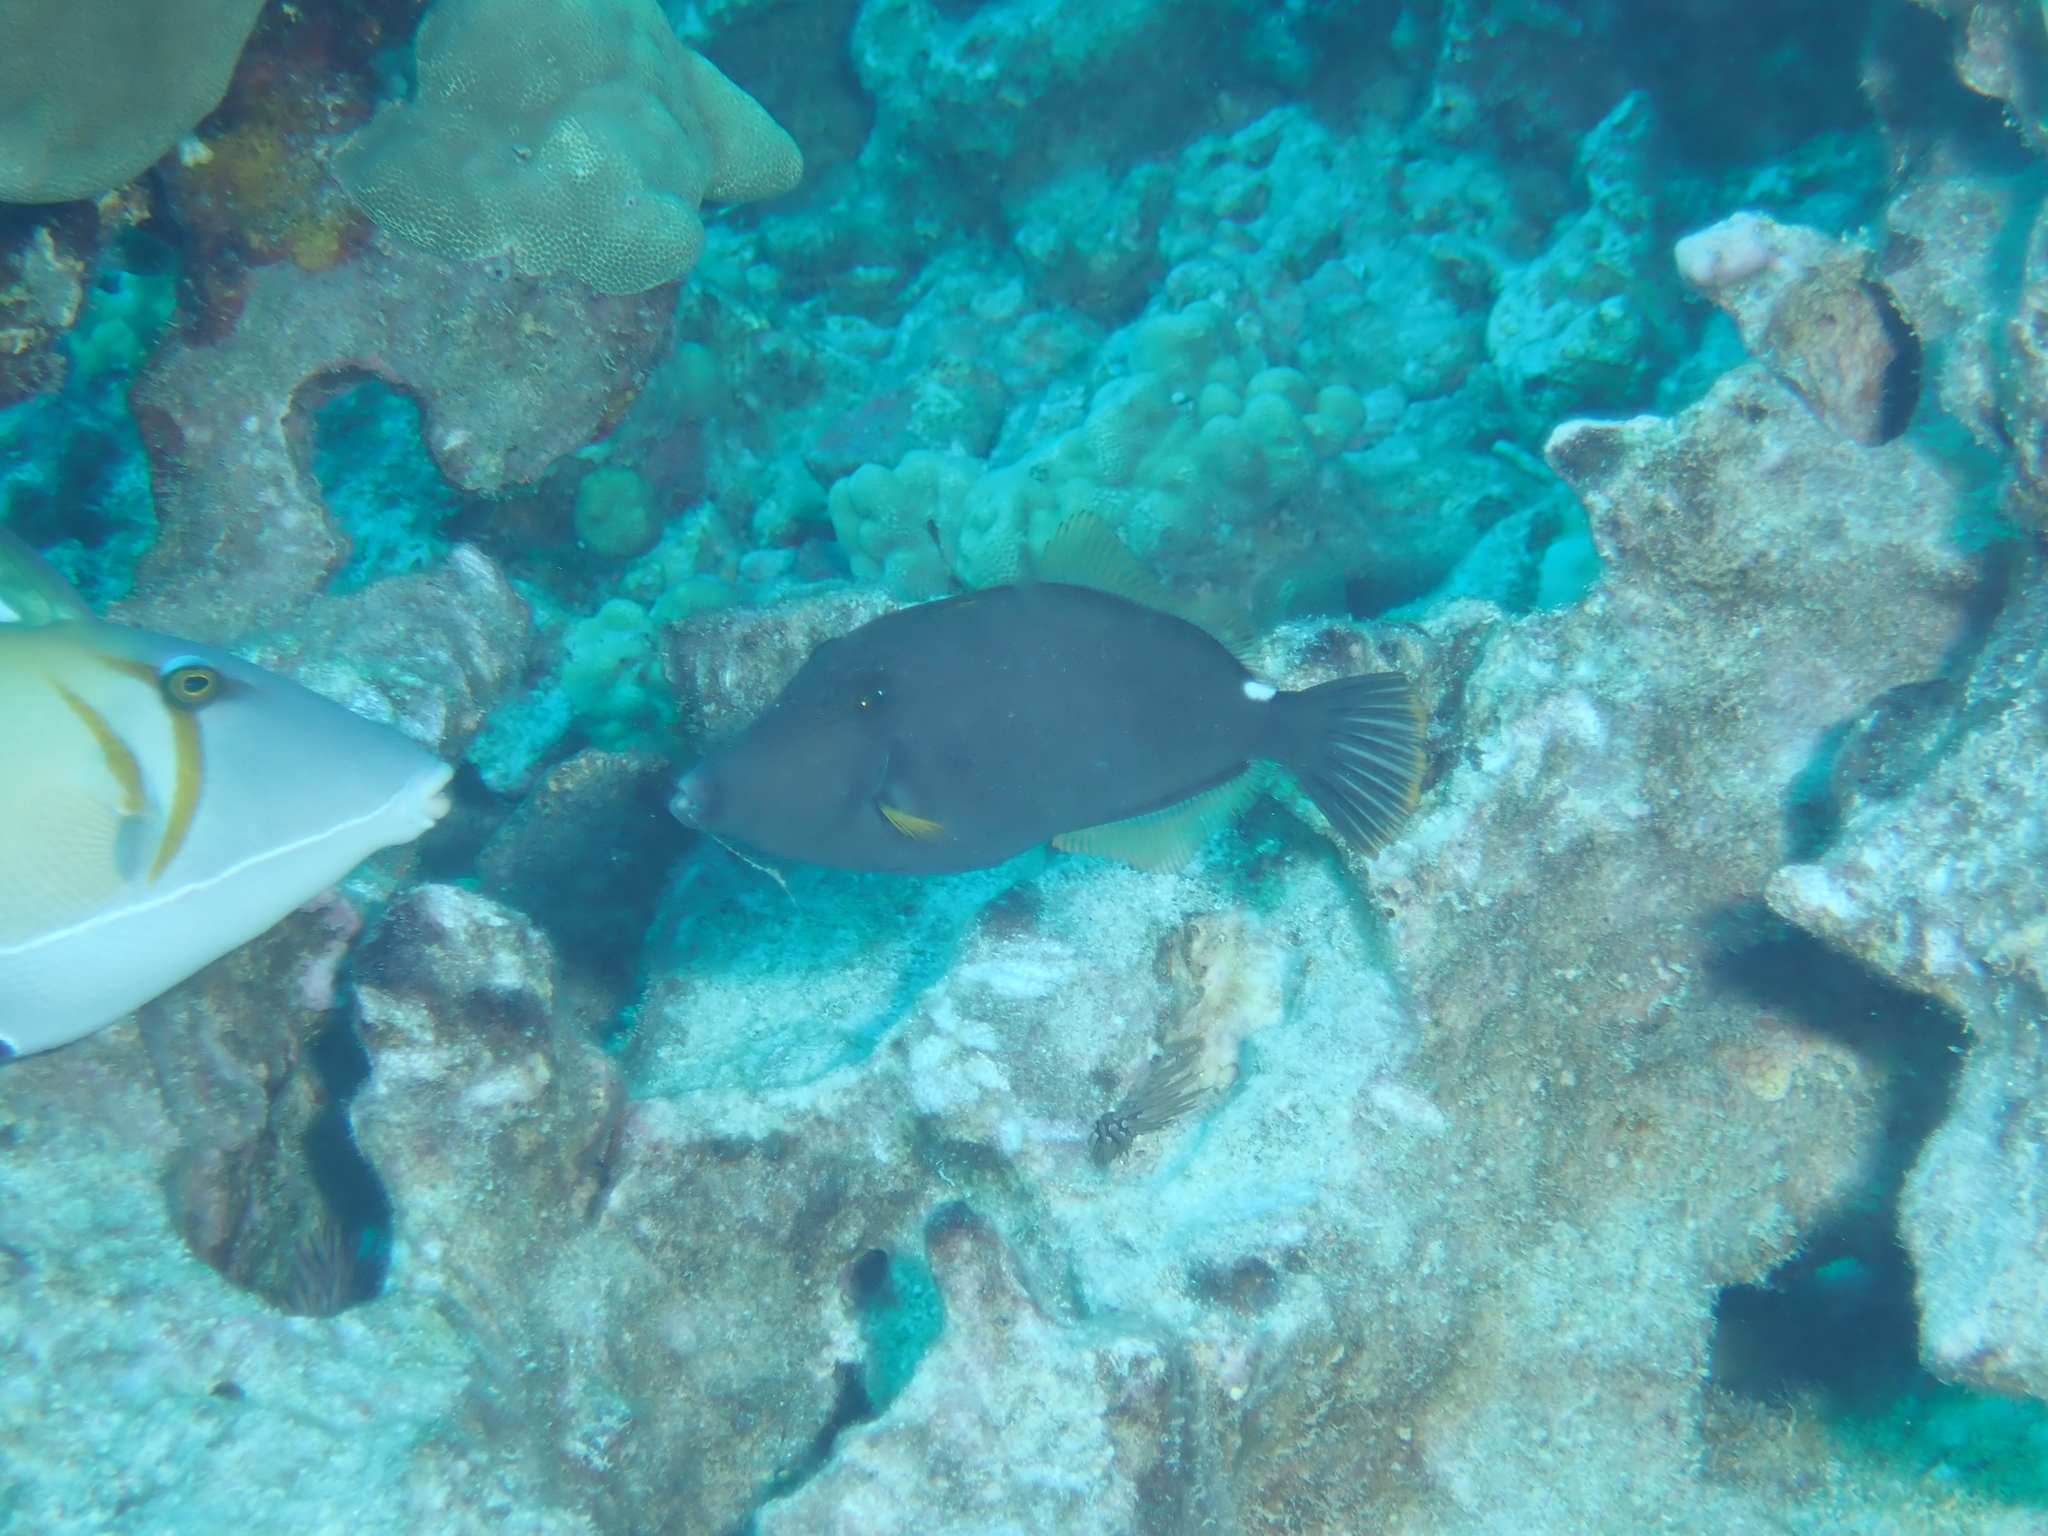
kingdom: Animalia
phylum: Chordata
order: Tetraodontiformes
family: Monacanthidae
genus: Cantherhines
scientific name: Cantherhines sandwichiensis
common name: Sandwich isle file
